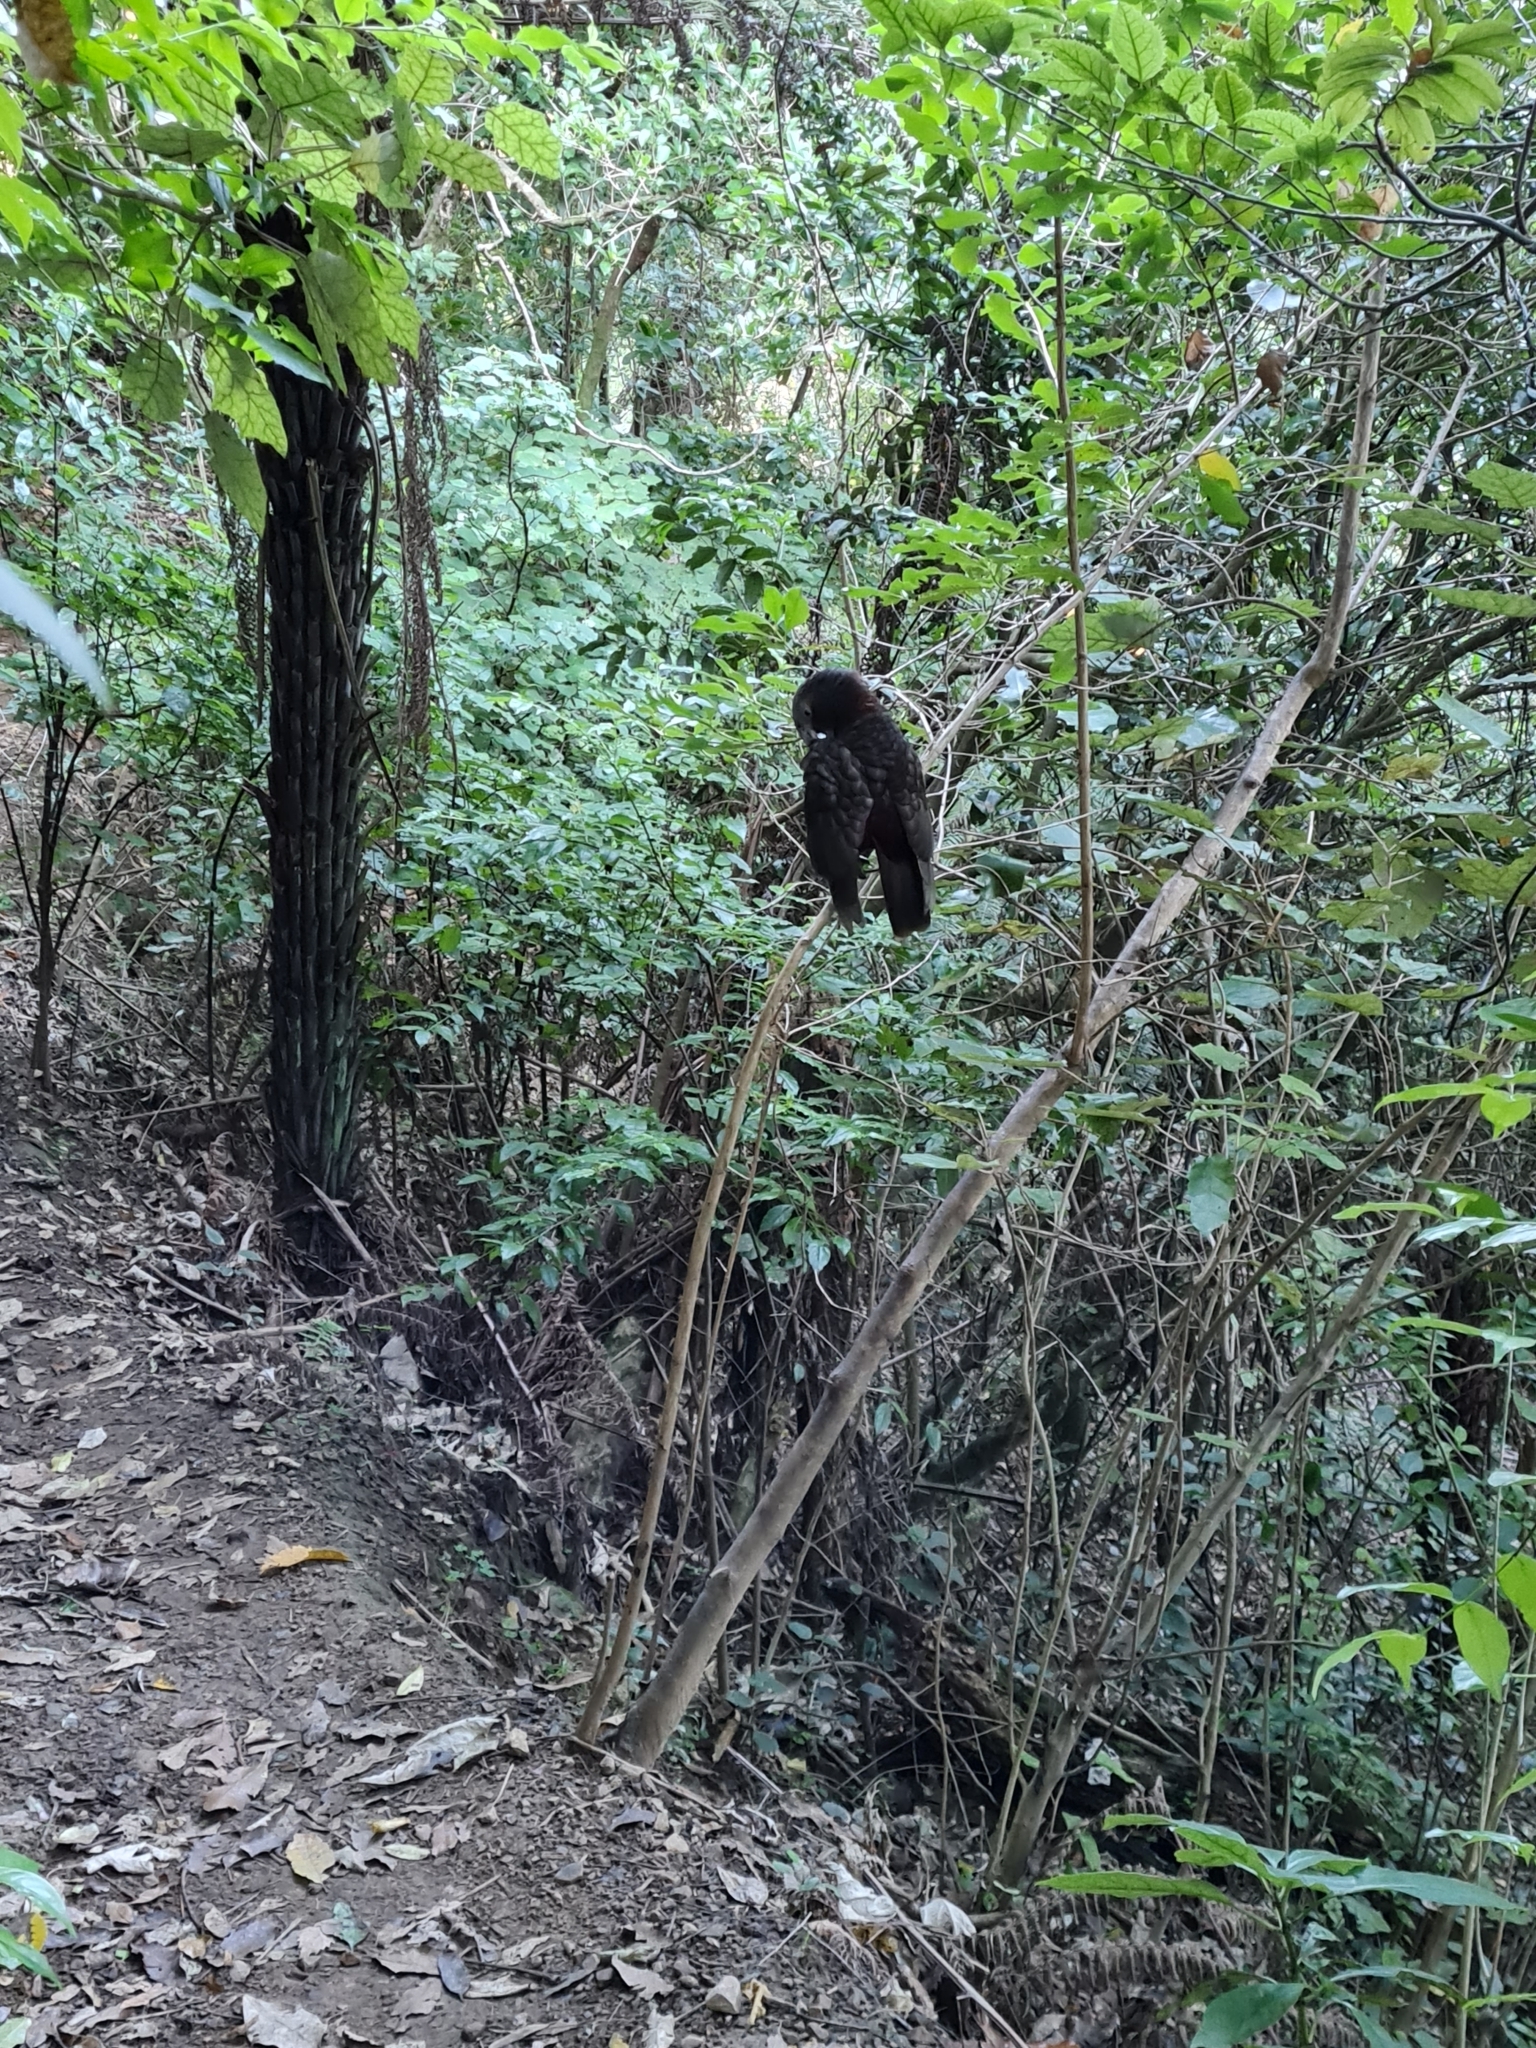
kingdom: Animalia
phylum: Chordata
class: Aves
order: Psittaciformes
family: Psittacidae
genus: Nestor
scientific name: Nestor meridionalis
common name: New zealand kaka
